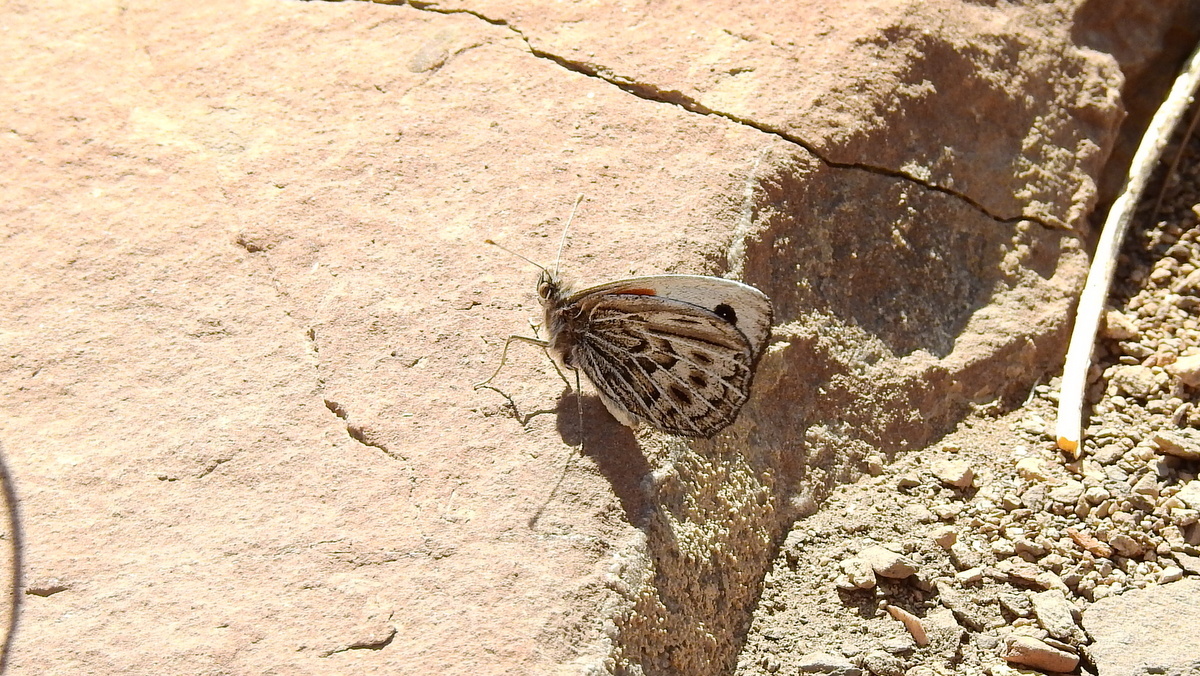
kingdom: Animalia
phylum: Arthropoda
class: Insecta
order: Lepidoptera
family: Nymphalidae
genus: Argyrophorus
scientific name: Argyrophorus argenteus
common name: Silver satyr
